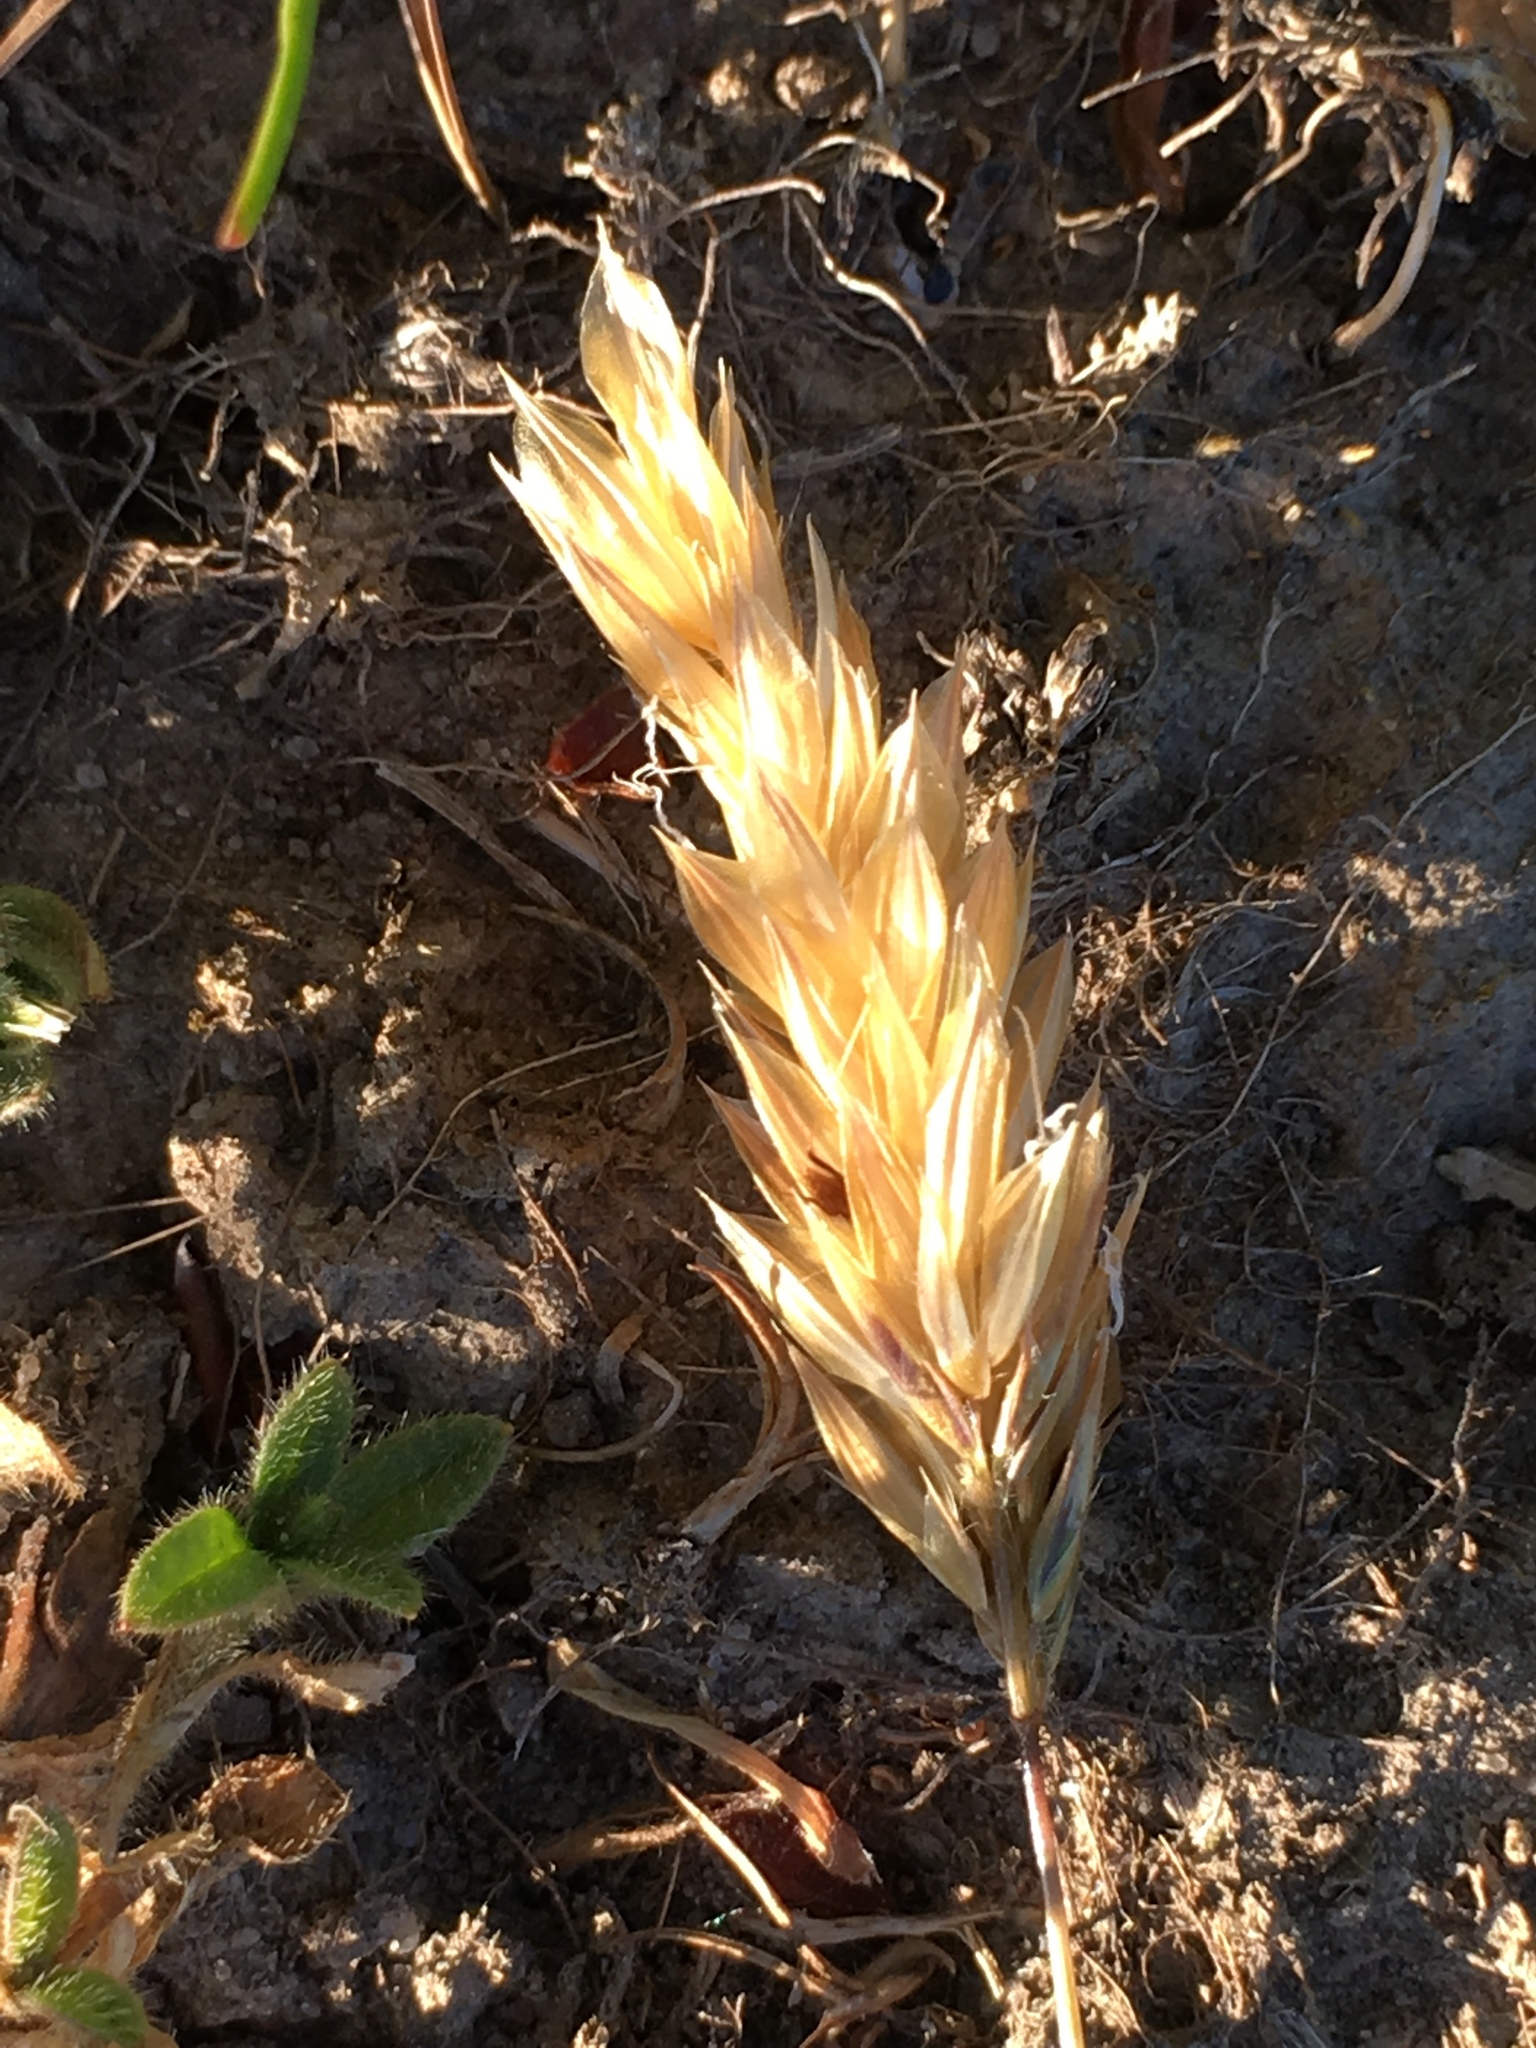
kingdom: Plantae
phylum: Tracheophyta
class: Liliopsida
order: Poales
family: Poaceae
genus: Triticum
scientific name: Triticum aestivum
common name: Common wheat
